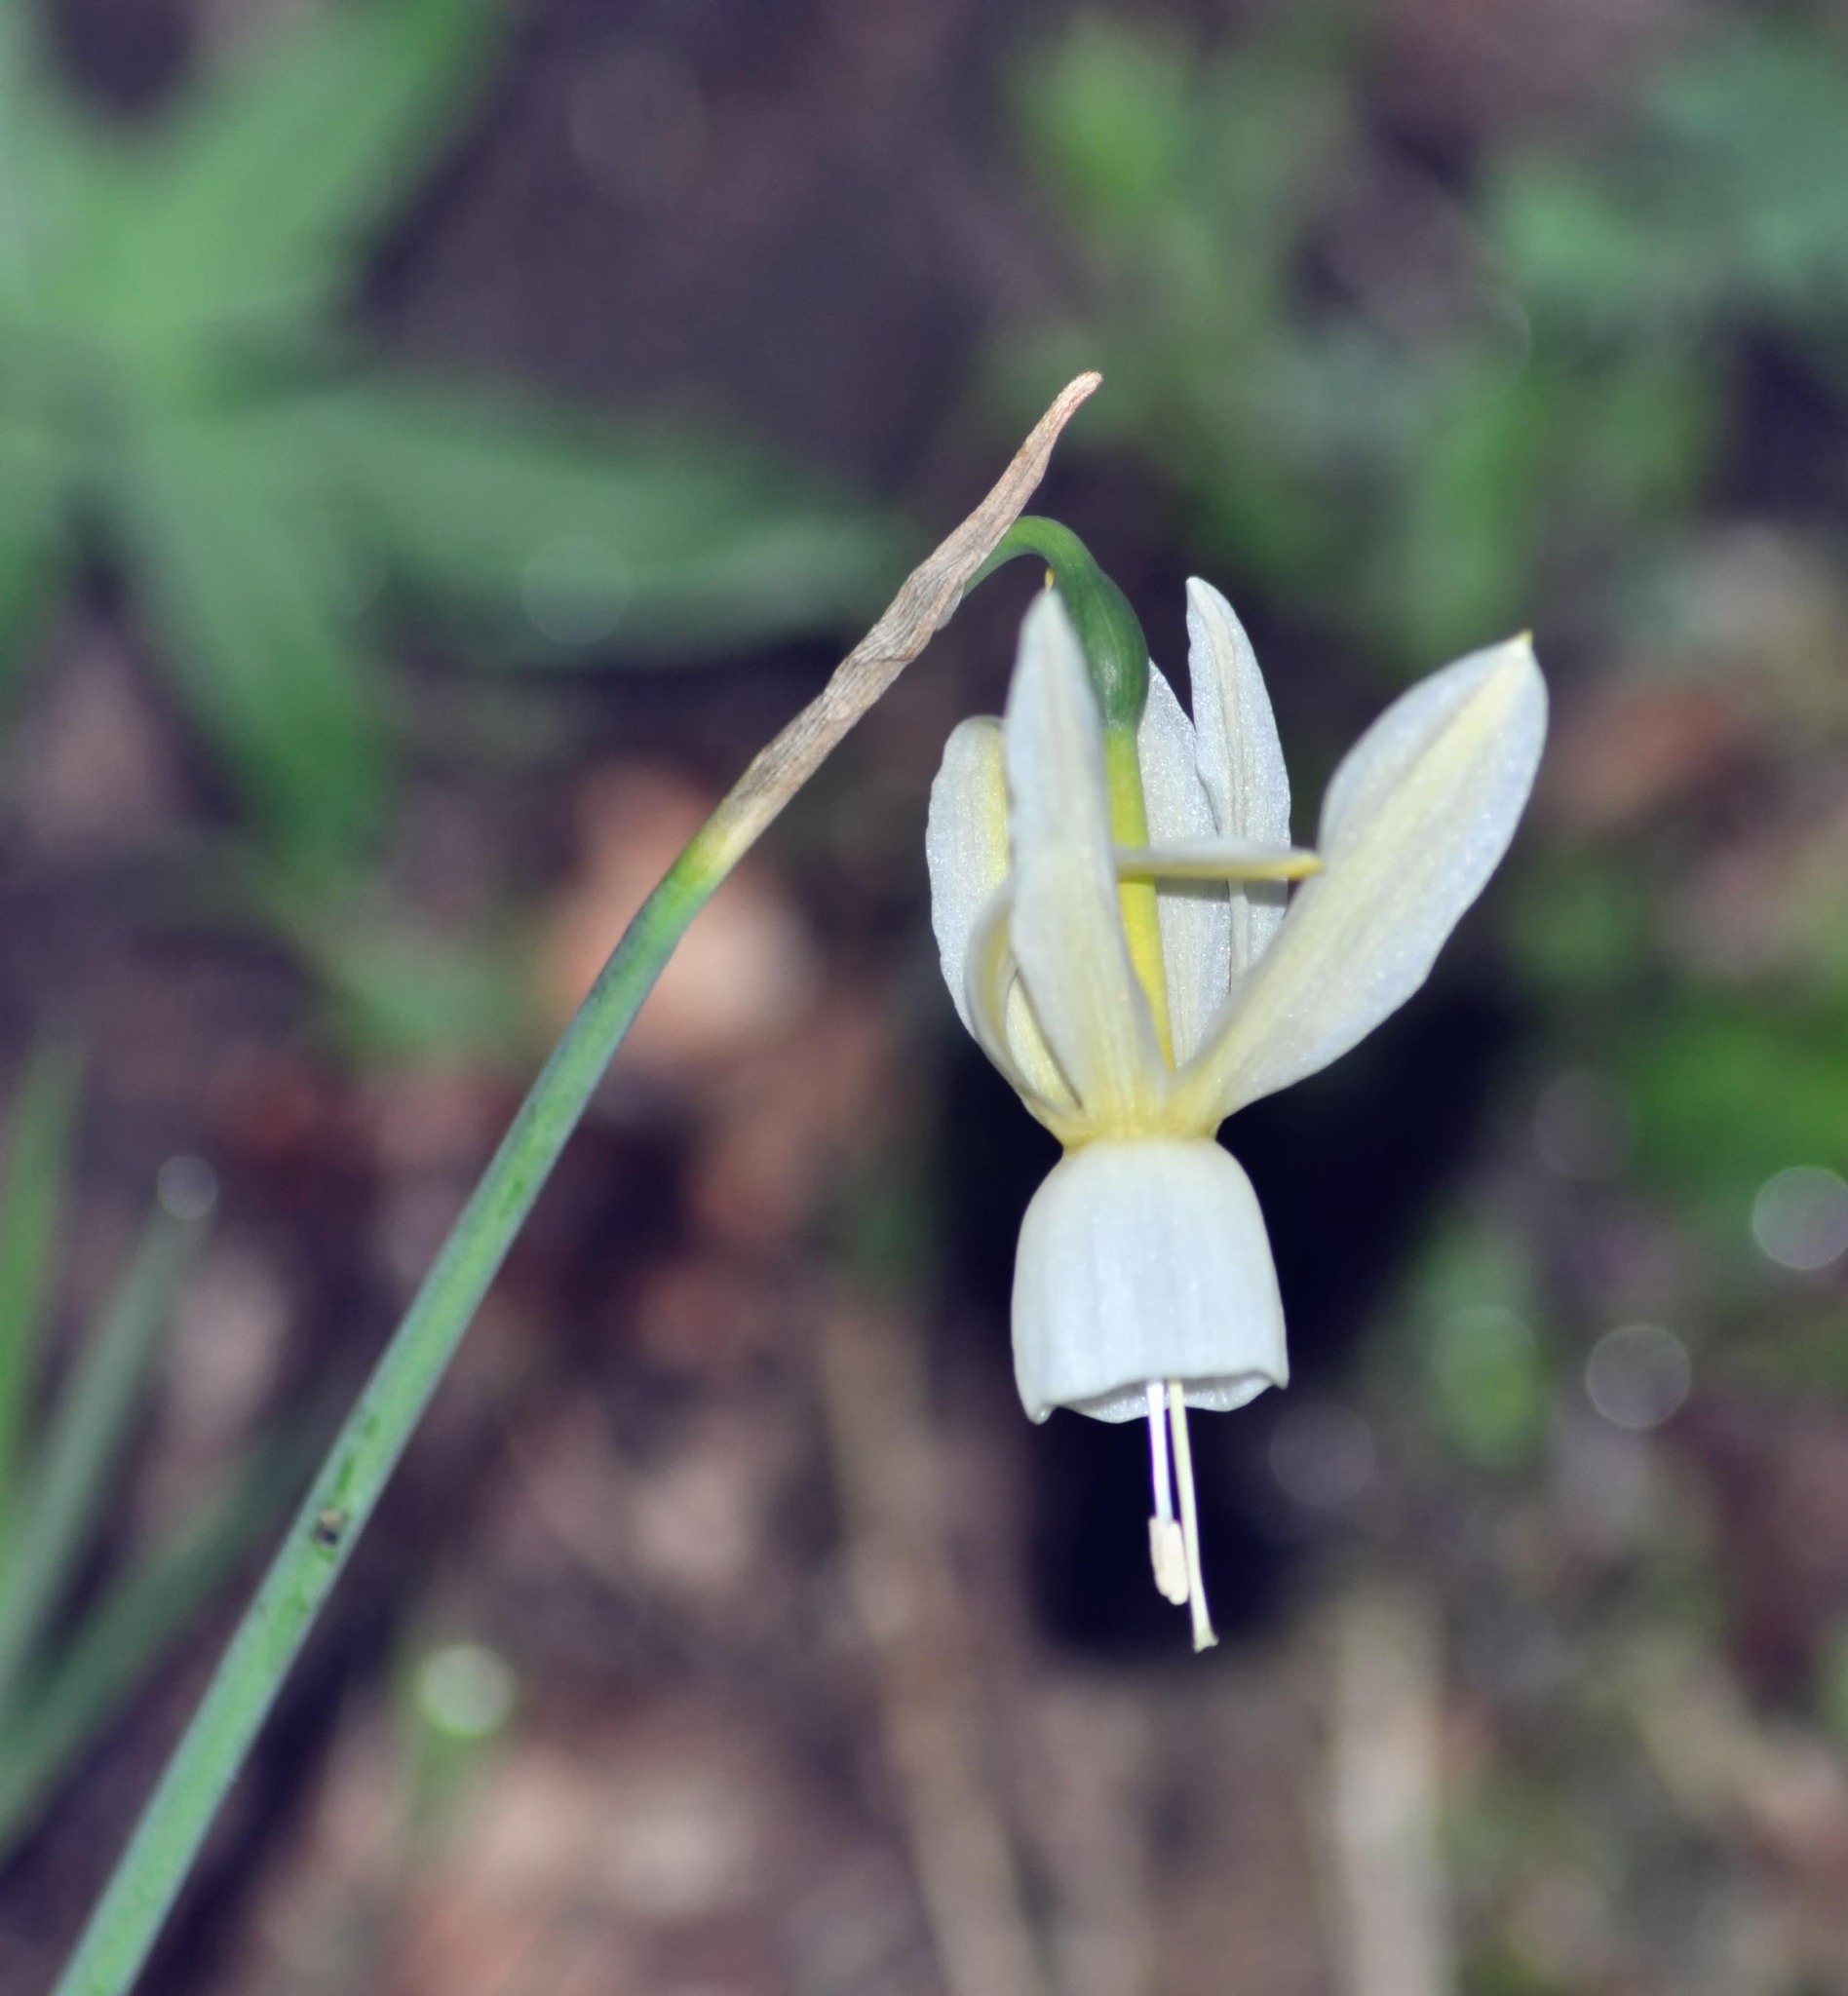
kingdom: Plantae
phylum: Tracheophyta
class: Liliopsida
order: Asparagales
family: Amaryllidaceae
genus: Narcissus
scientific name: Narcissus triandrus
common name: Angel's-tears
